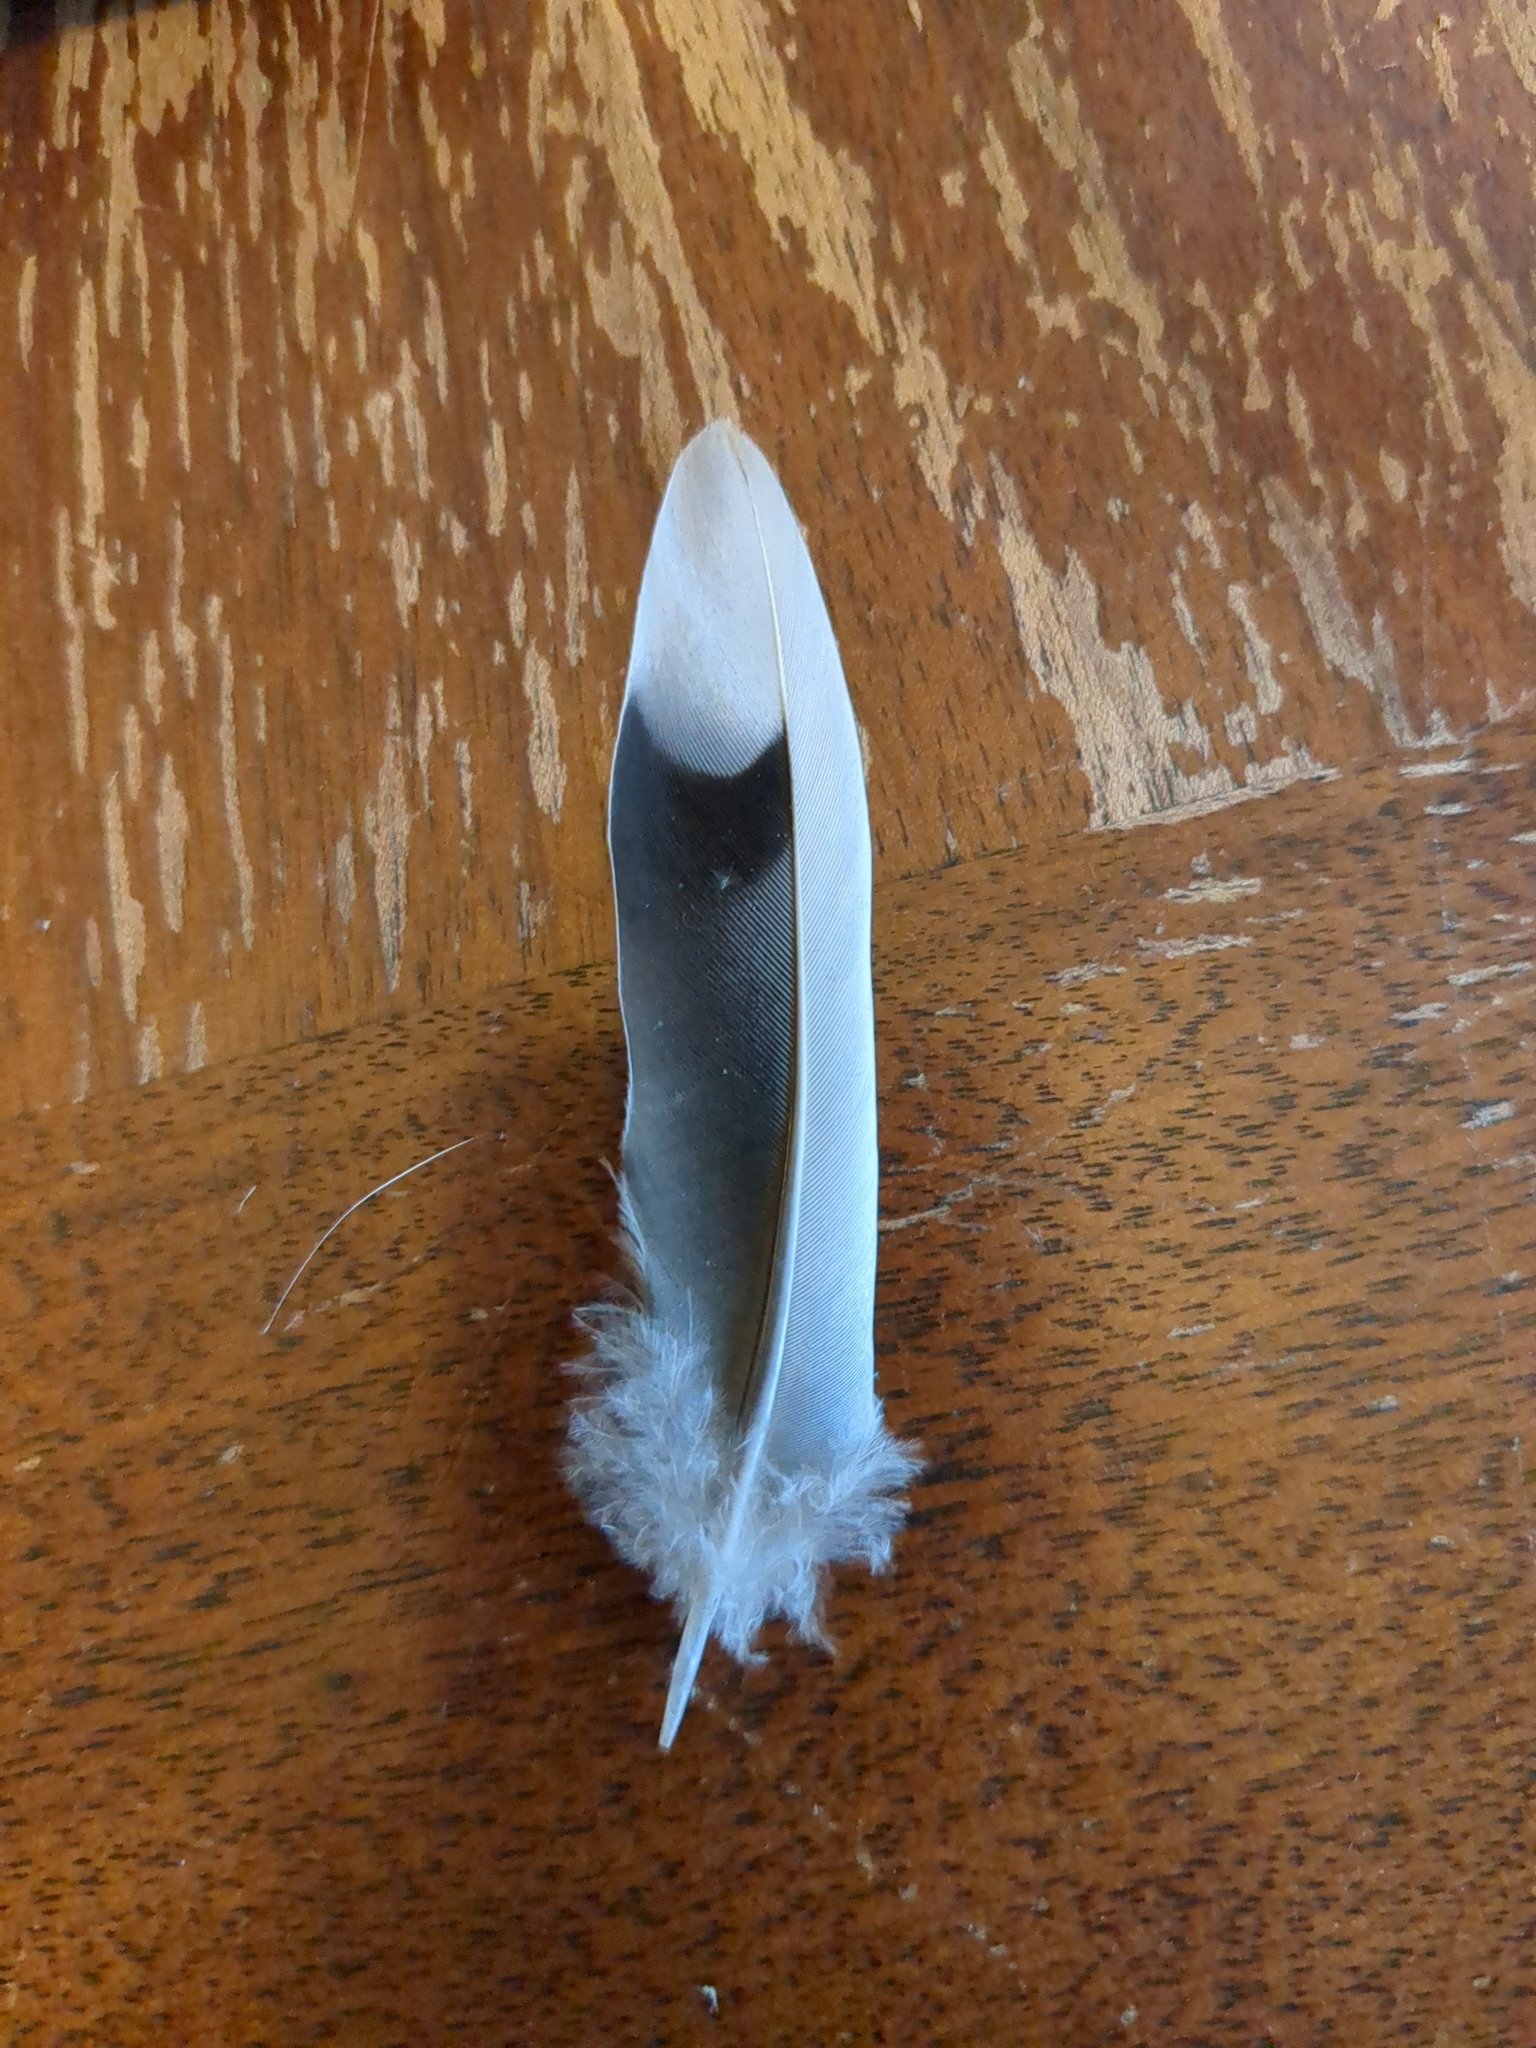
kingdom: Animalia
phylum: Chordata
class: Aves
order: Columbiformes
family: Columbidae
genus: Zenaida
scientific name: Zenaida macroura
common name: Mourning dove
